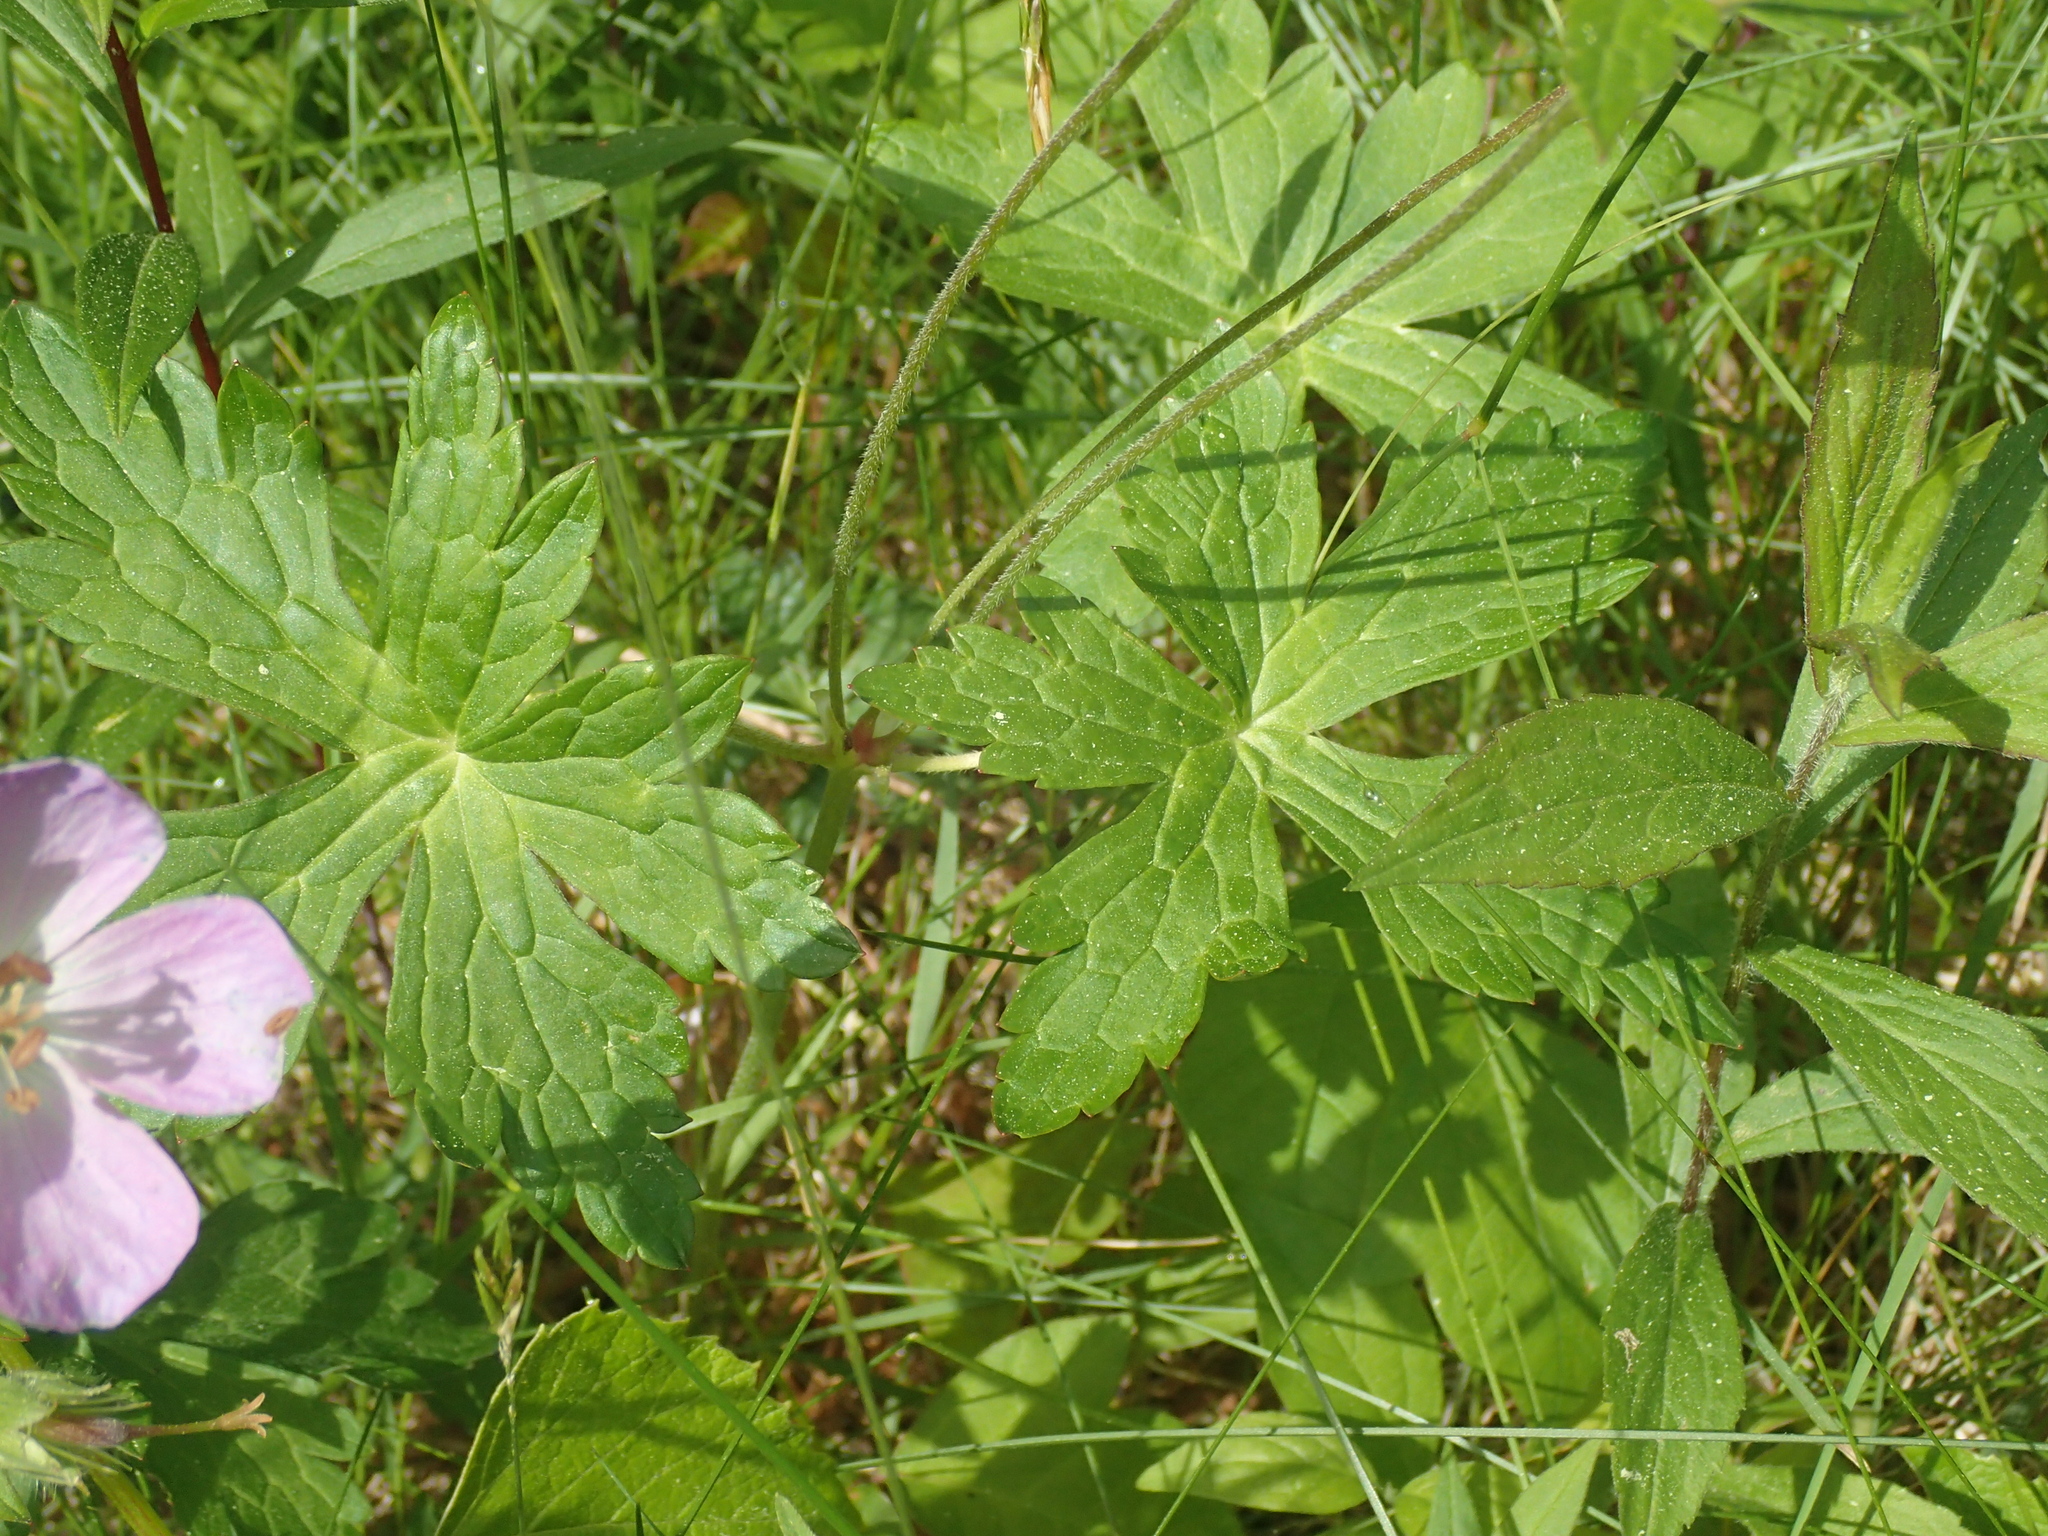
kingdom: Plantae
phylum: Tracheophyta
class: Magnoliopsida
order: Geraniales
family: Geraniaceae
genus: Geranium
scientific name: Geranium maculatum
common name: Spotted geranium
